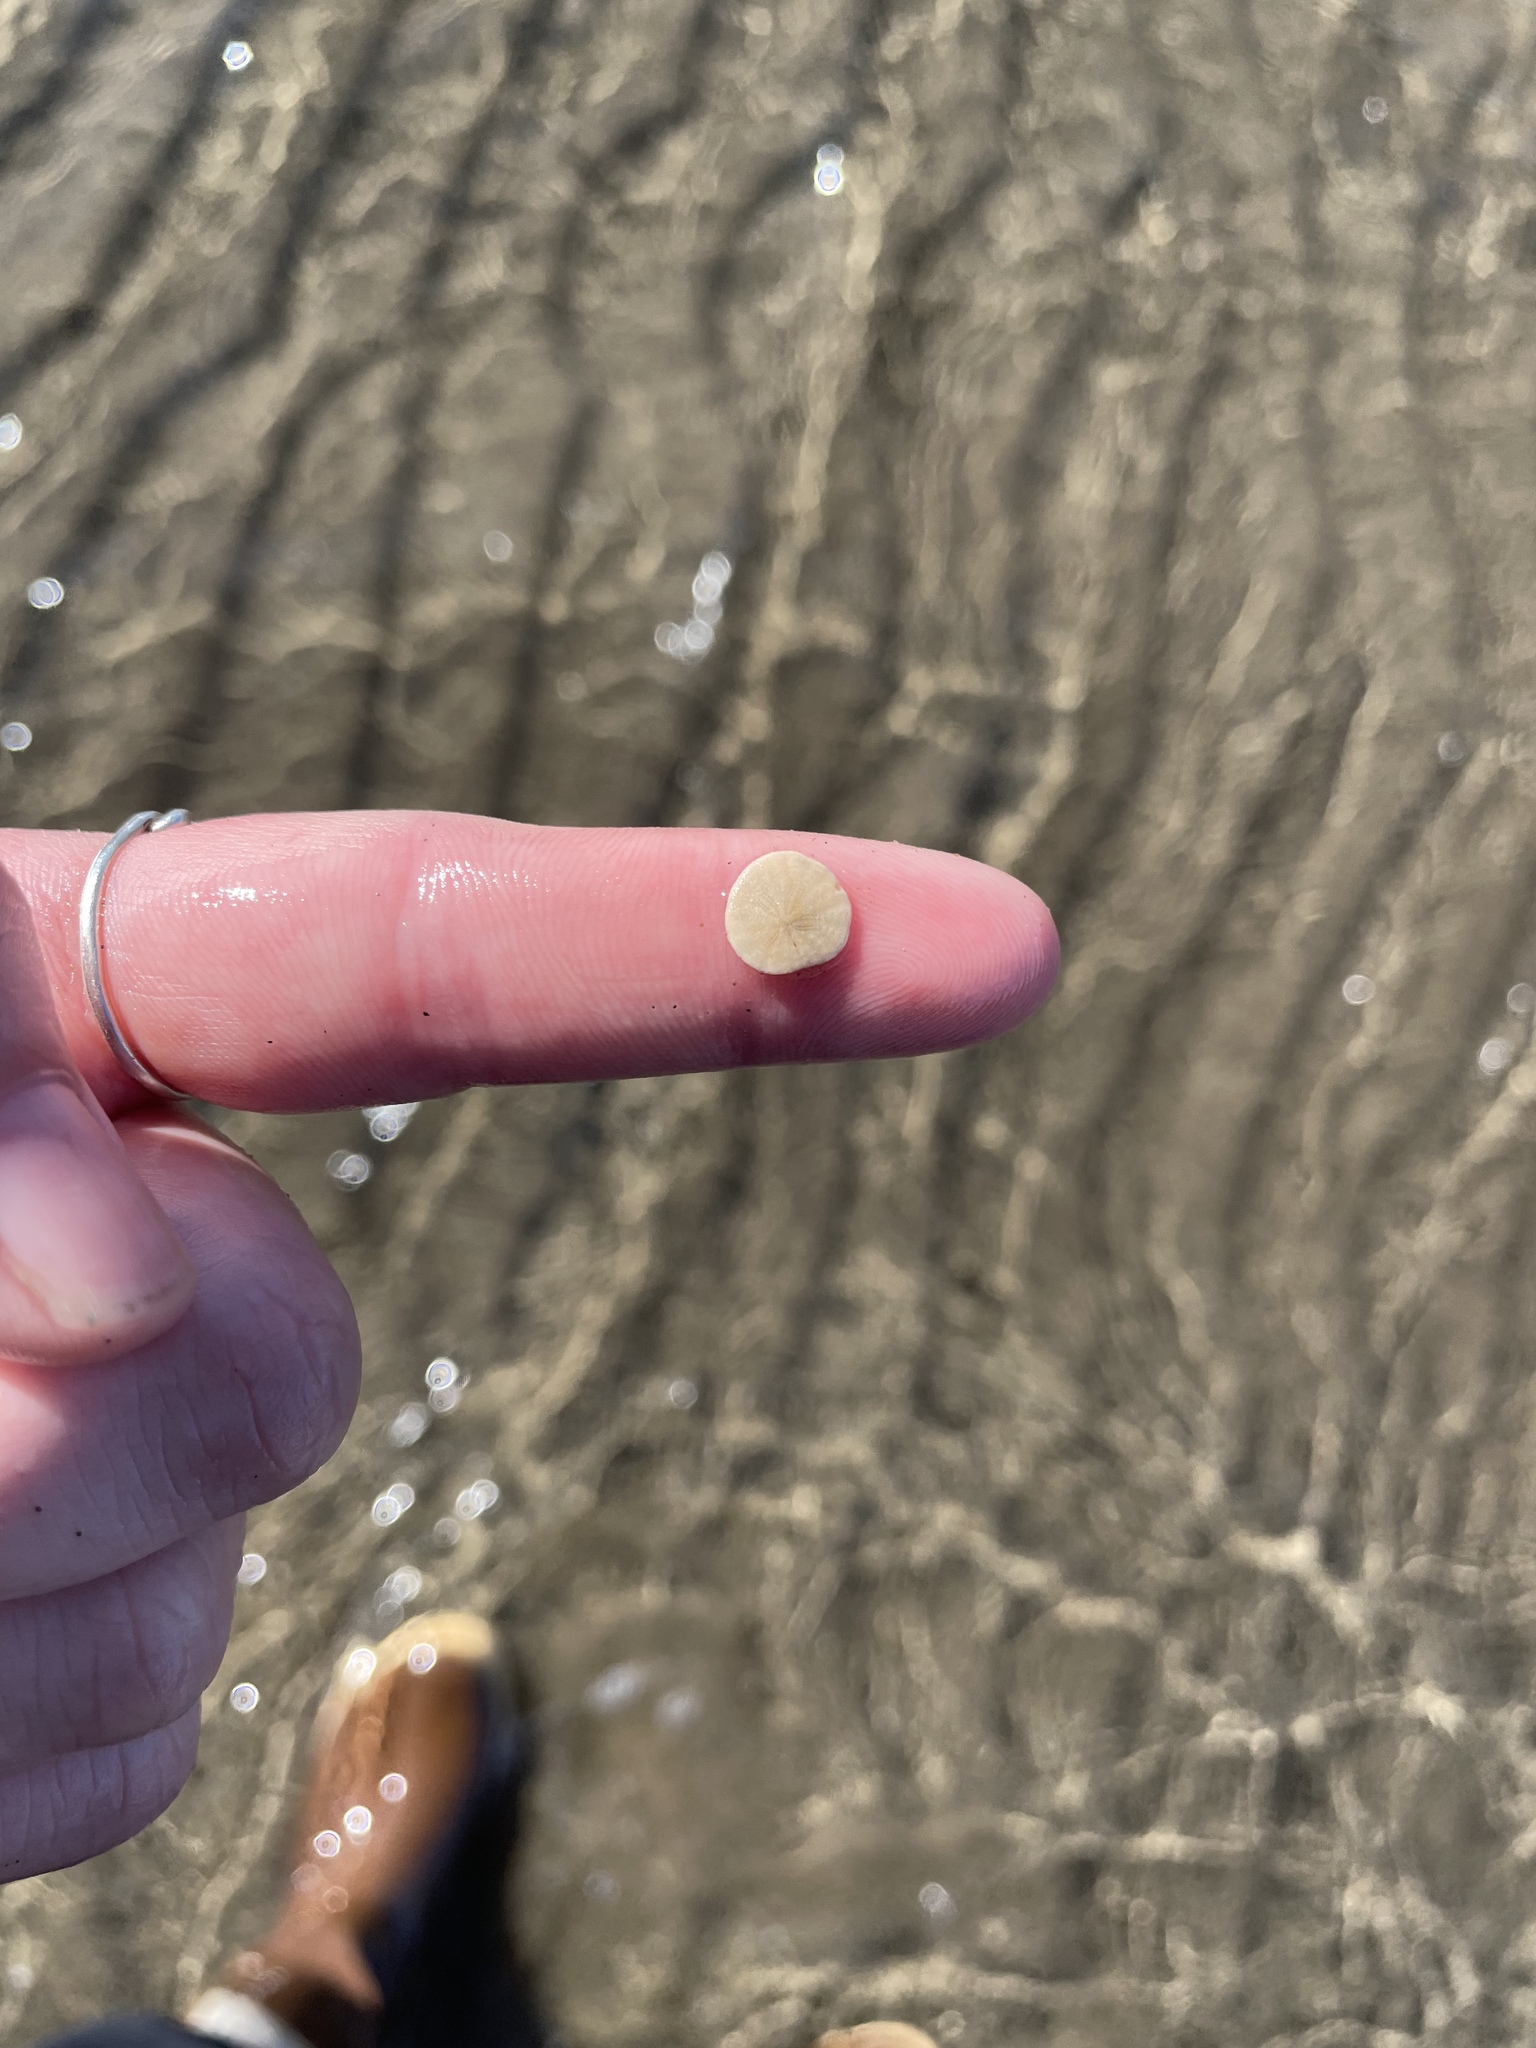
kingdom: Animalia
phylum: Echinodermata
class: Echinoidea
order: Echinolampadacea
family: Echinarachniidae
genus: Echinarachnius
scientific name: Echinarachnius parma
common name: Common sand dollar
